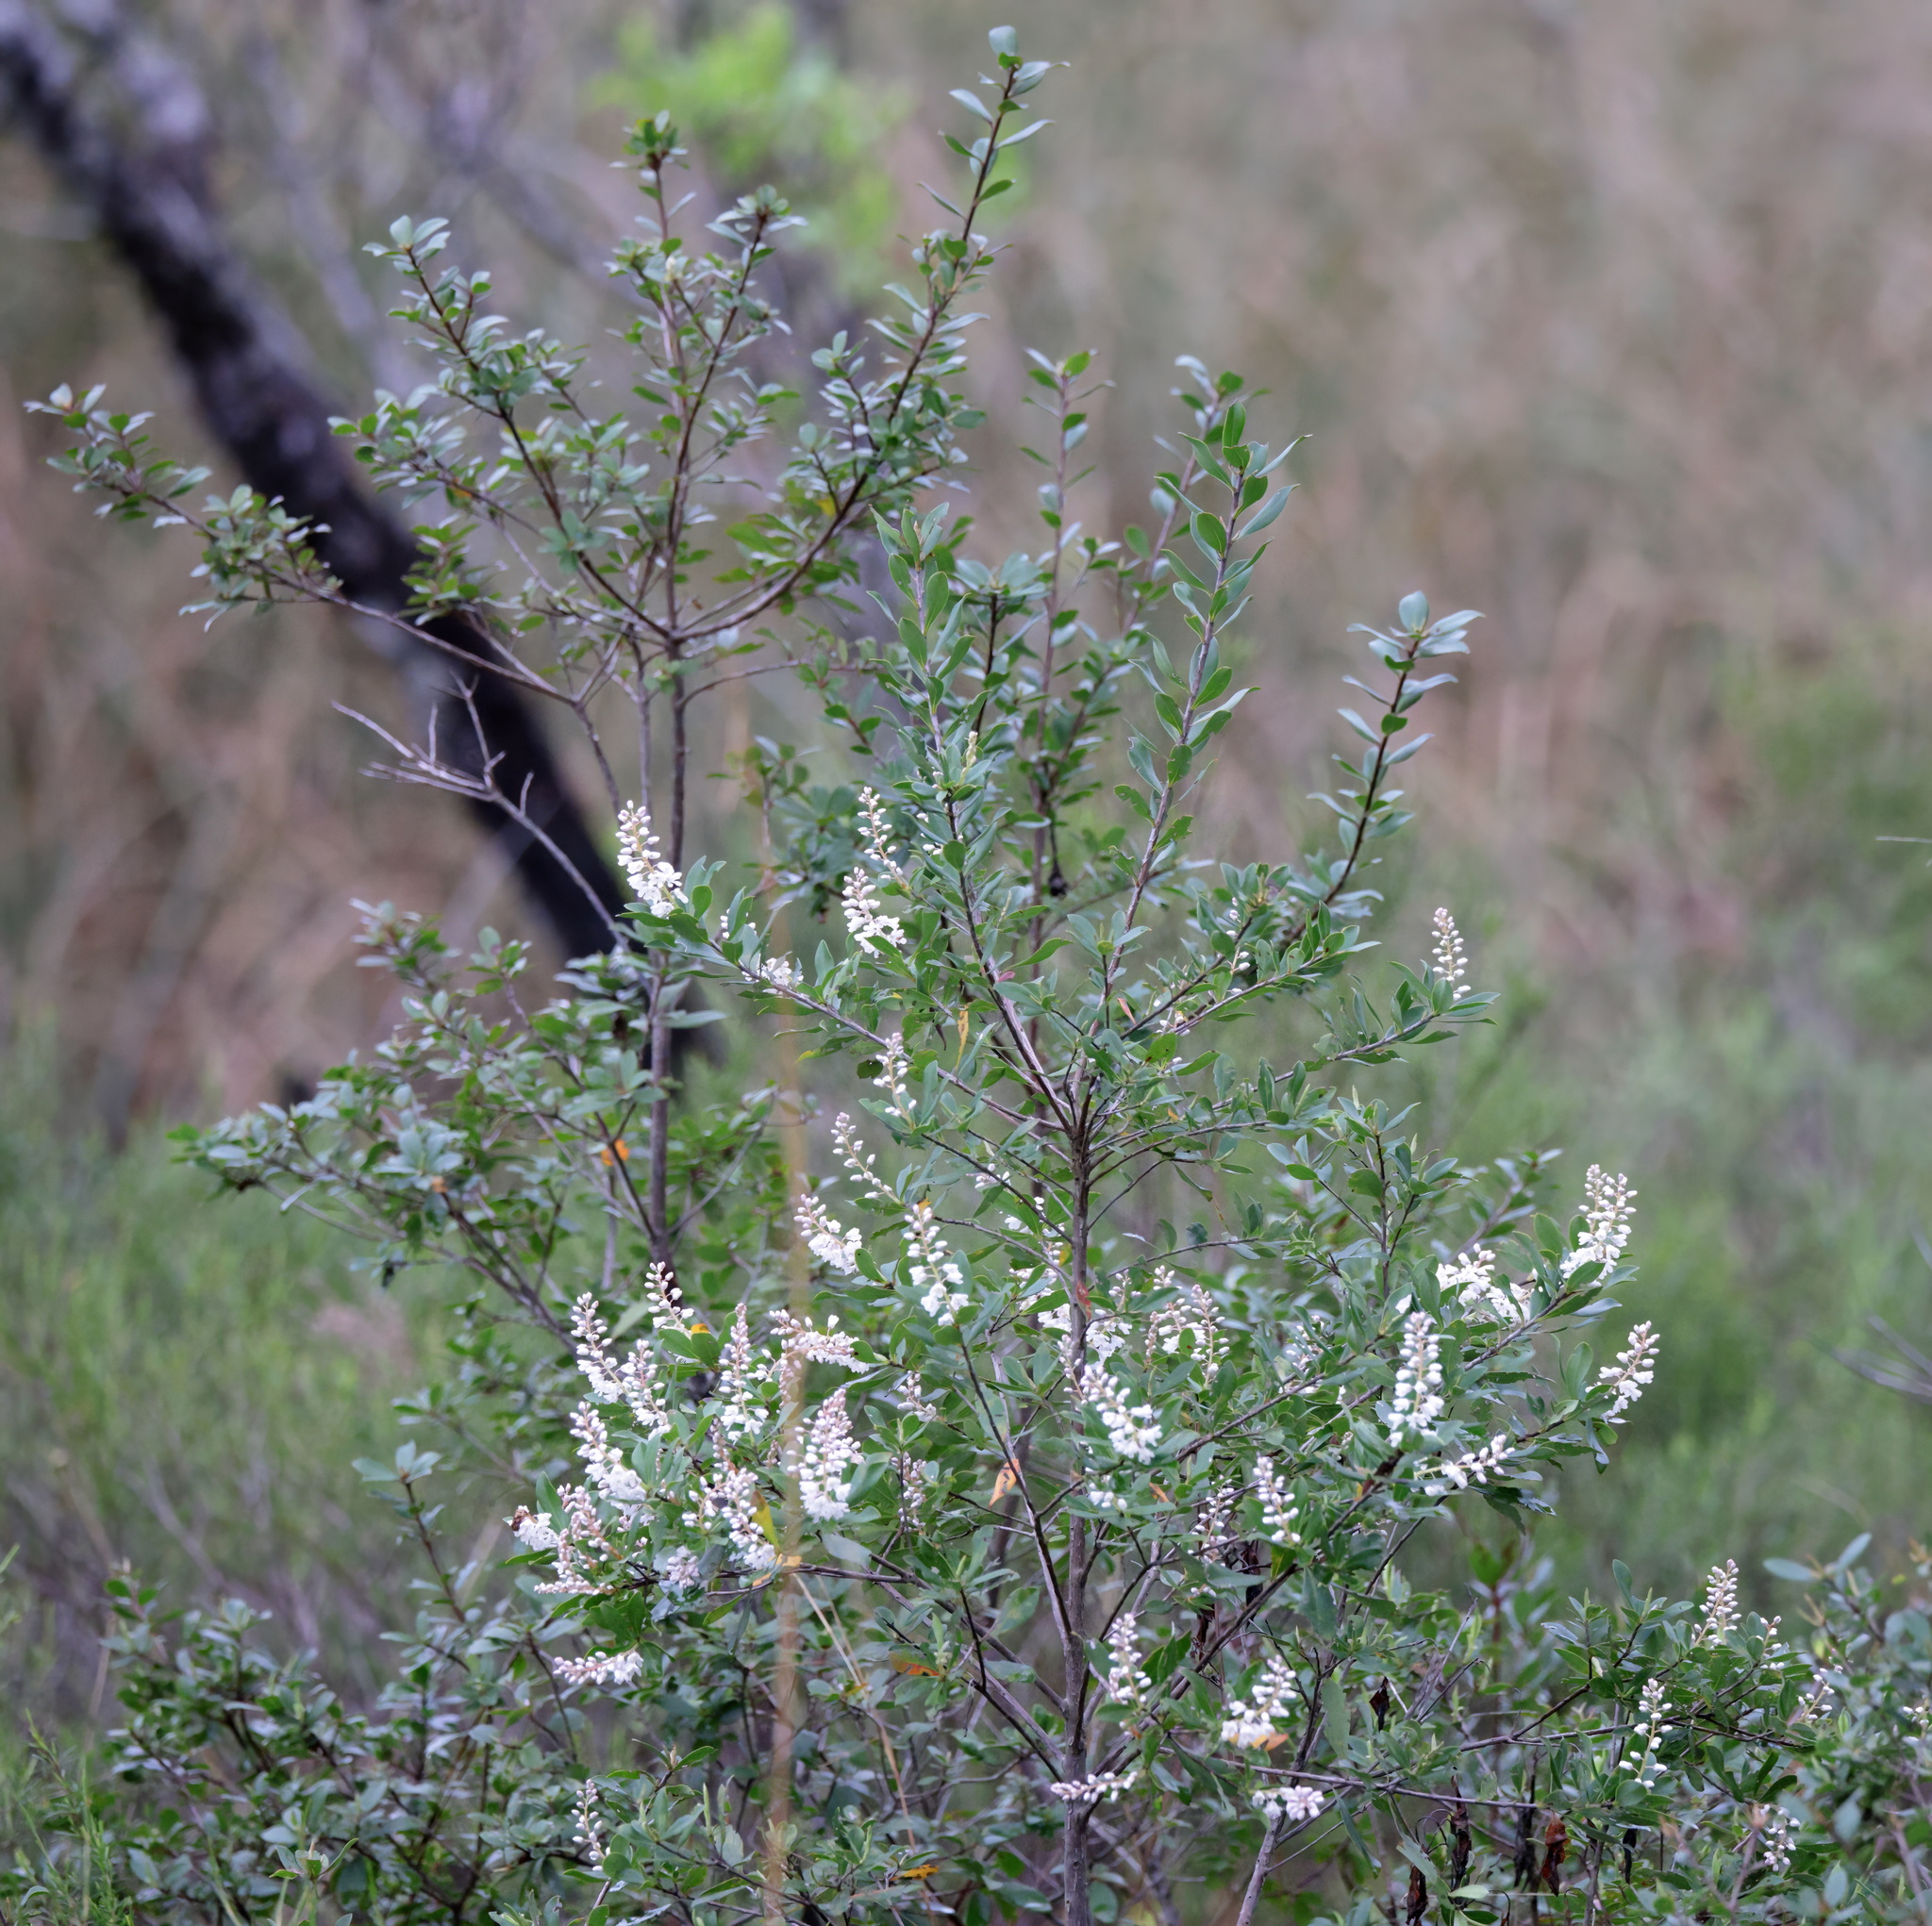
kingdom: Plantae
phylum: Tracheophyta
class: Magnoliopsida
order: Ericales
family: Cyrillaceae
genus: Cliftonia
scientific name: Cliftonia monophylla
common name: Titi
